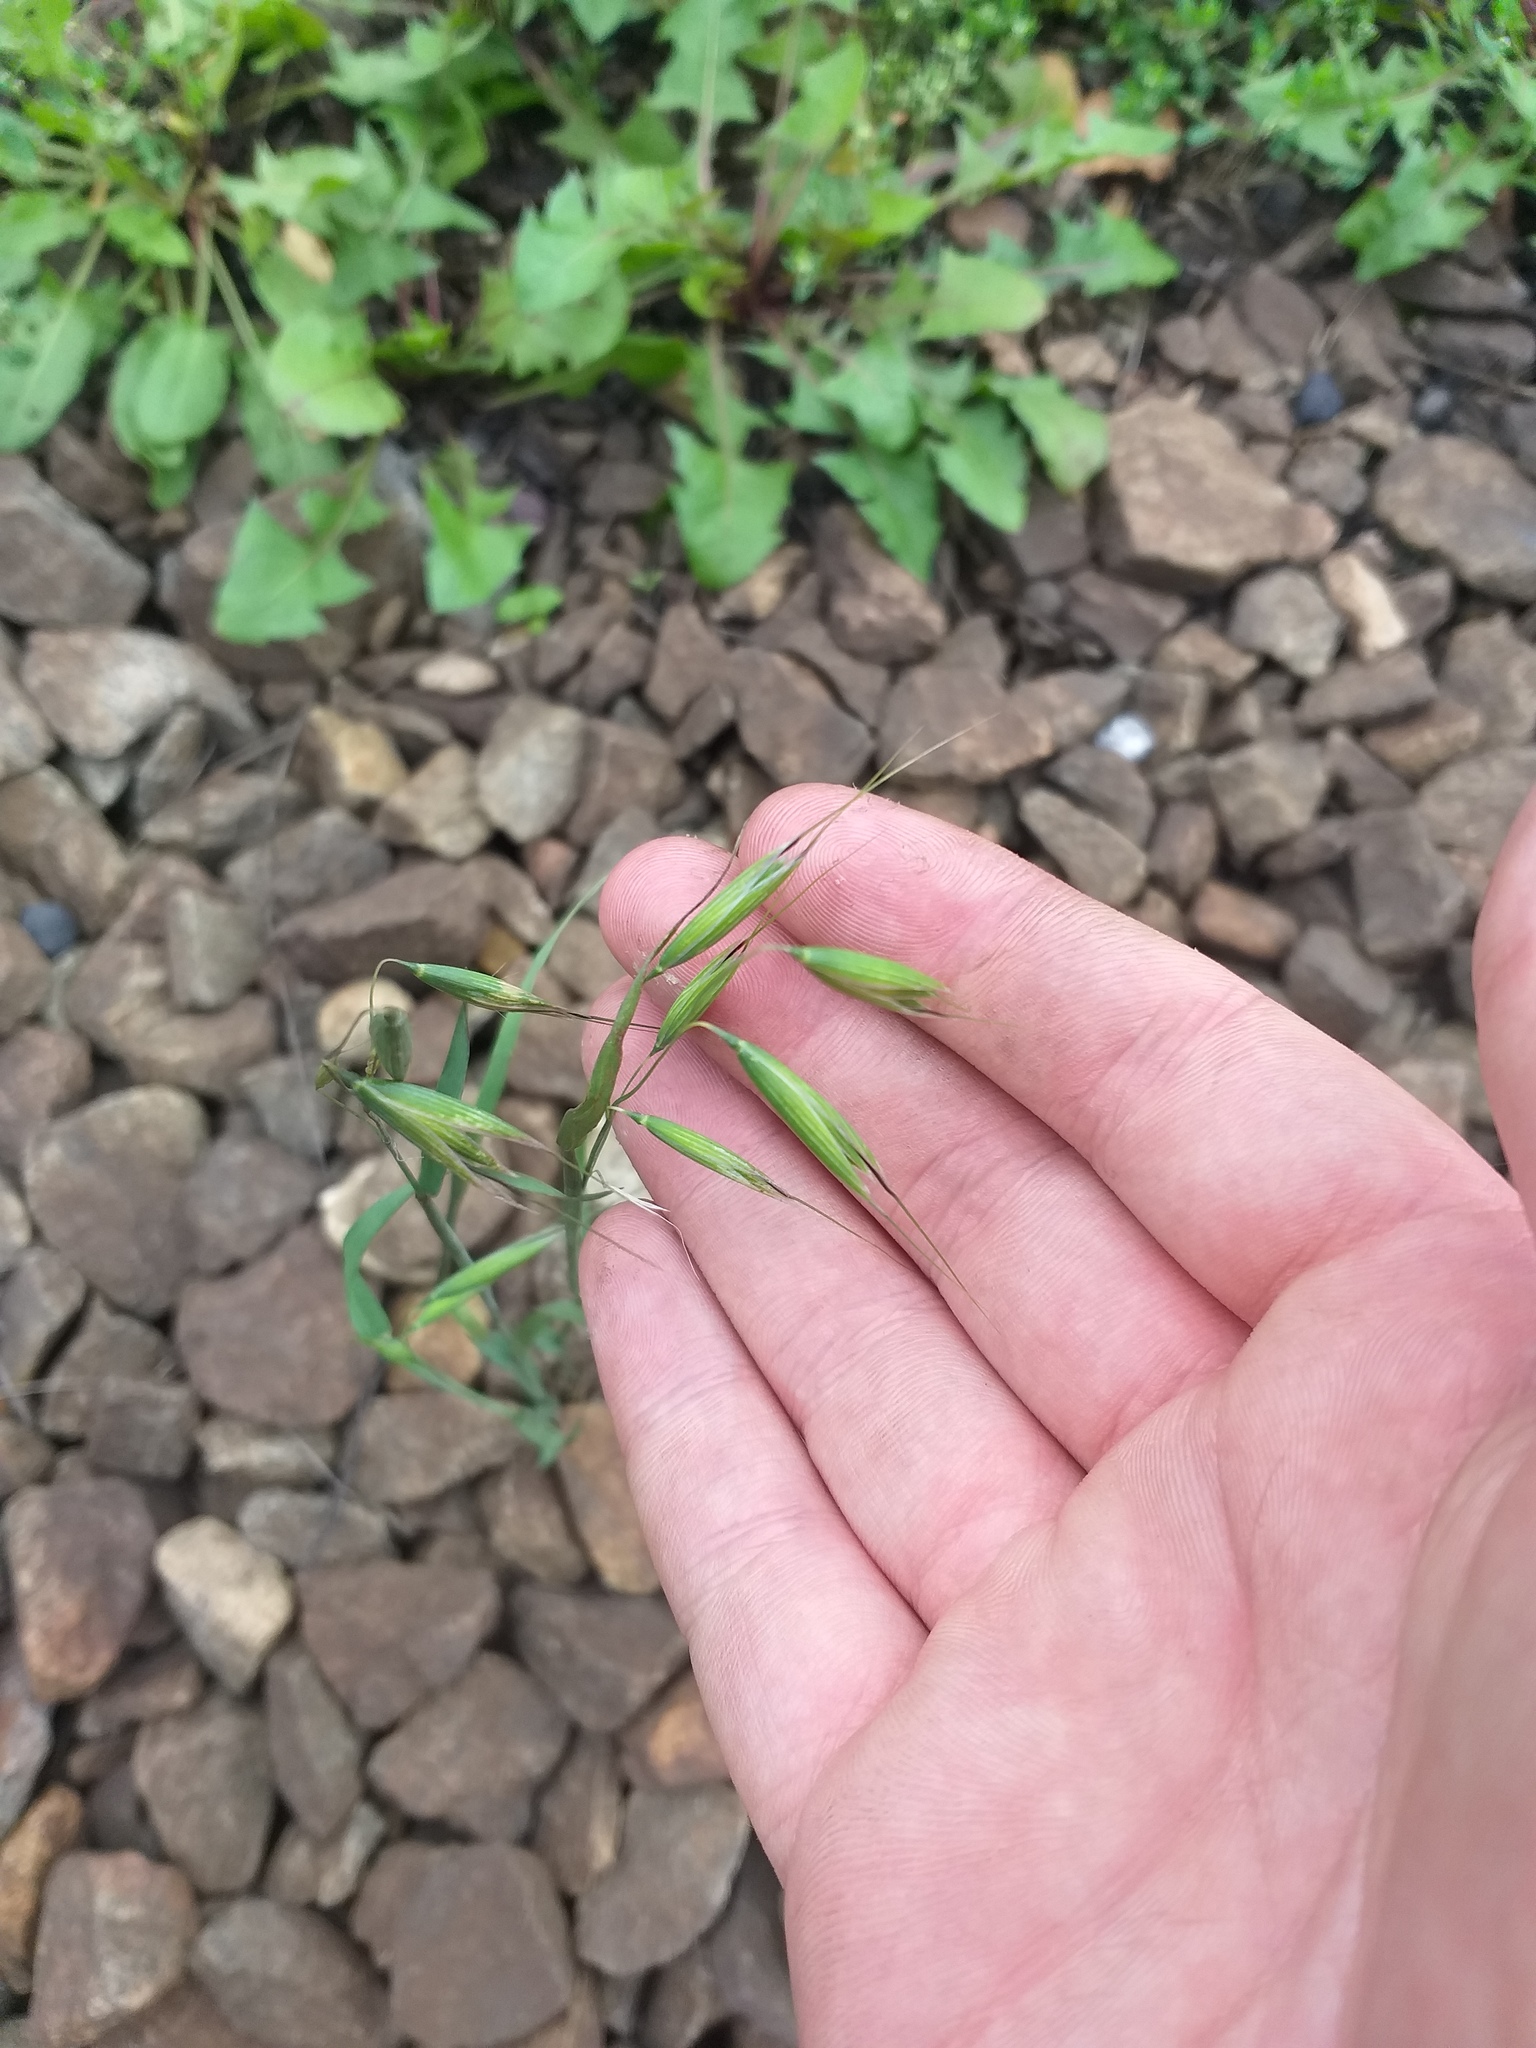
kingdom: Plantae
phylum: Tracheophyta
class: Liliopsida
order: Poales
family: Poaceae
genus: Avena
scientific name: Avena fatua
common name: Wild oat
